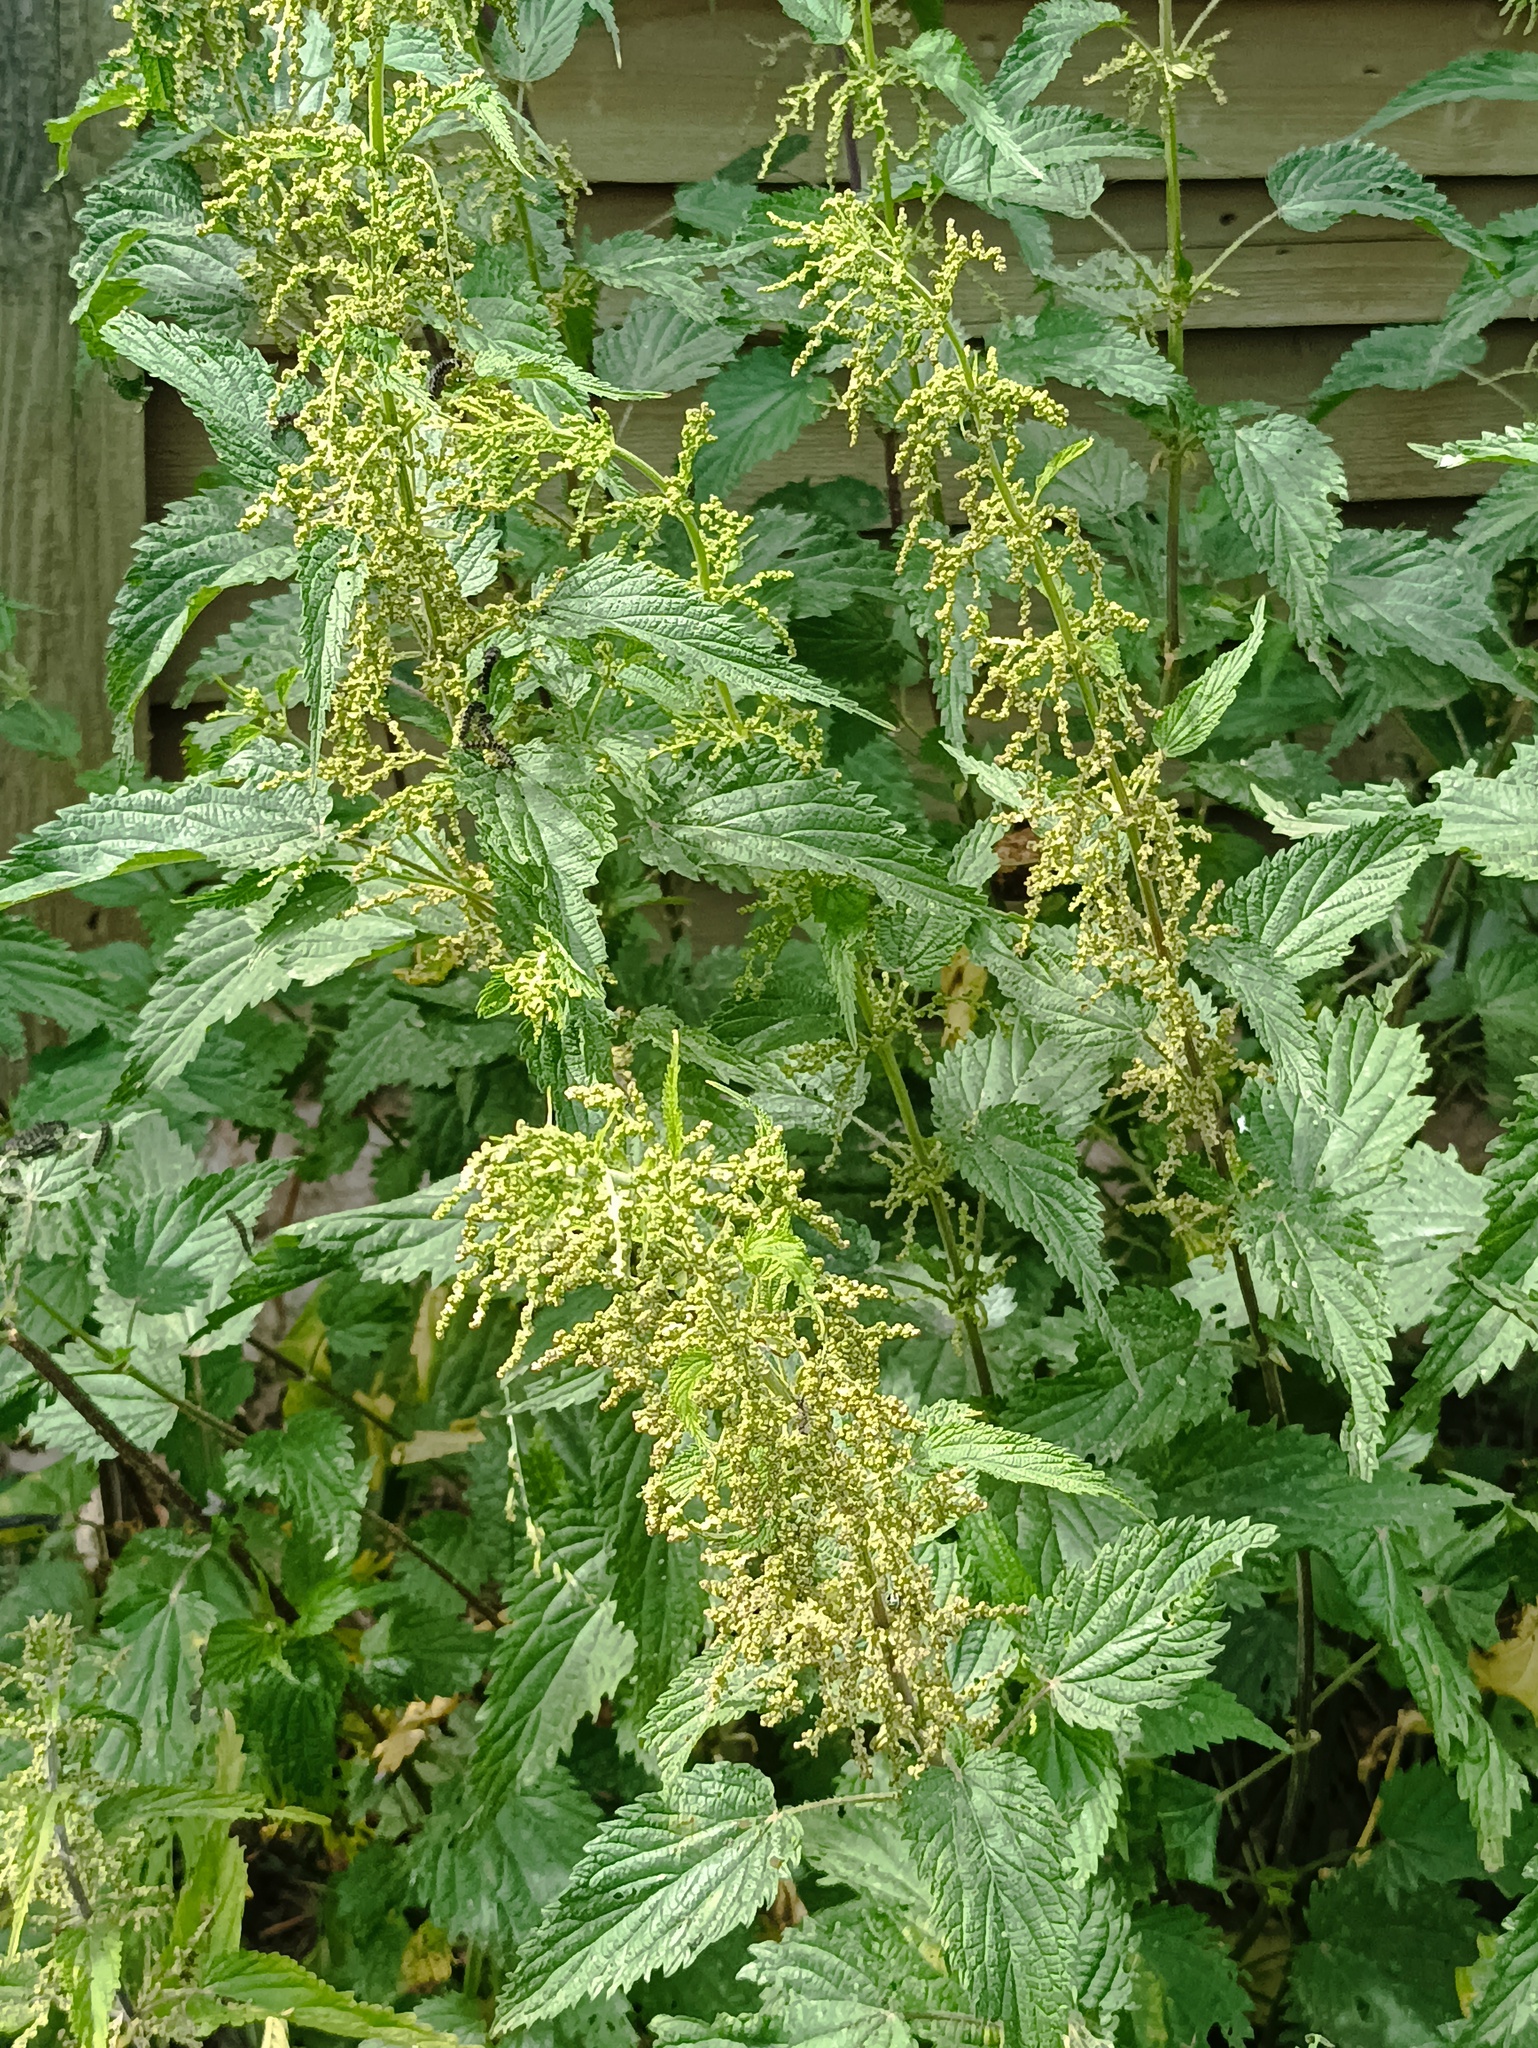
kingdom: Plantae
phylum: Tracheophyta
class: Magnoliopsida
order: Rosales
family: Urticaceae
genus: Urtica
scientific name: Urtica dioica
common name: Common nettle
